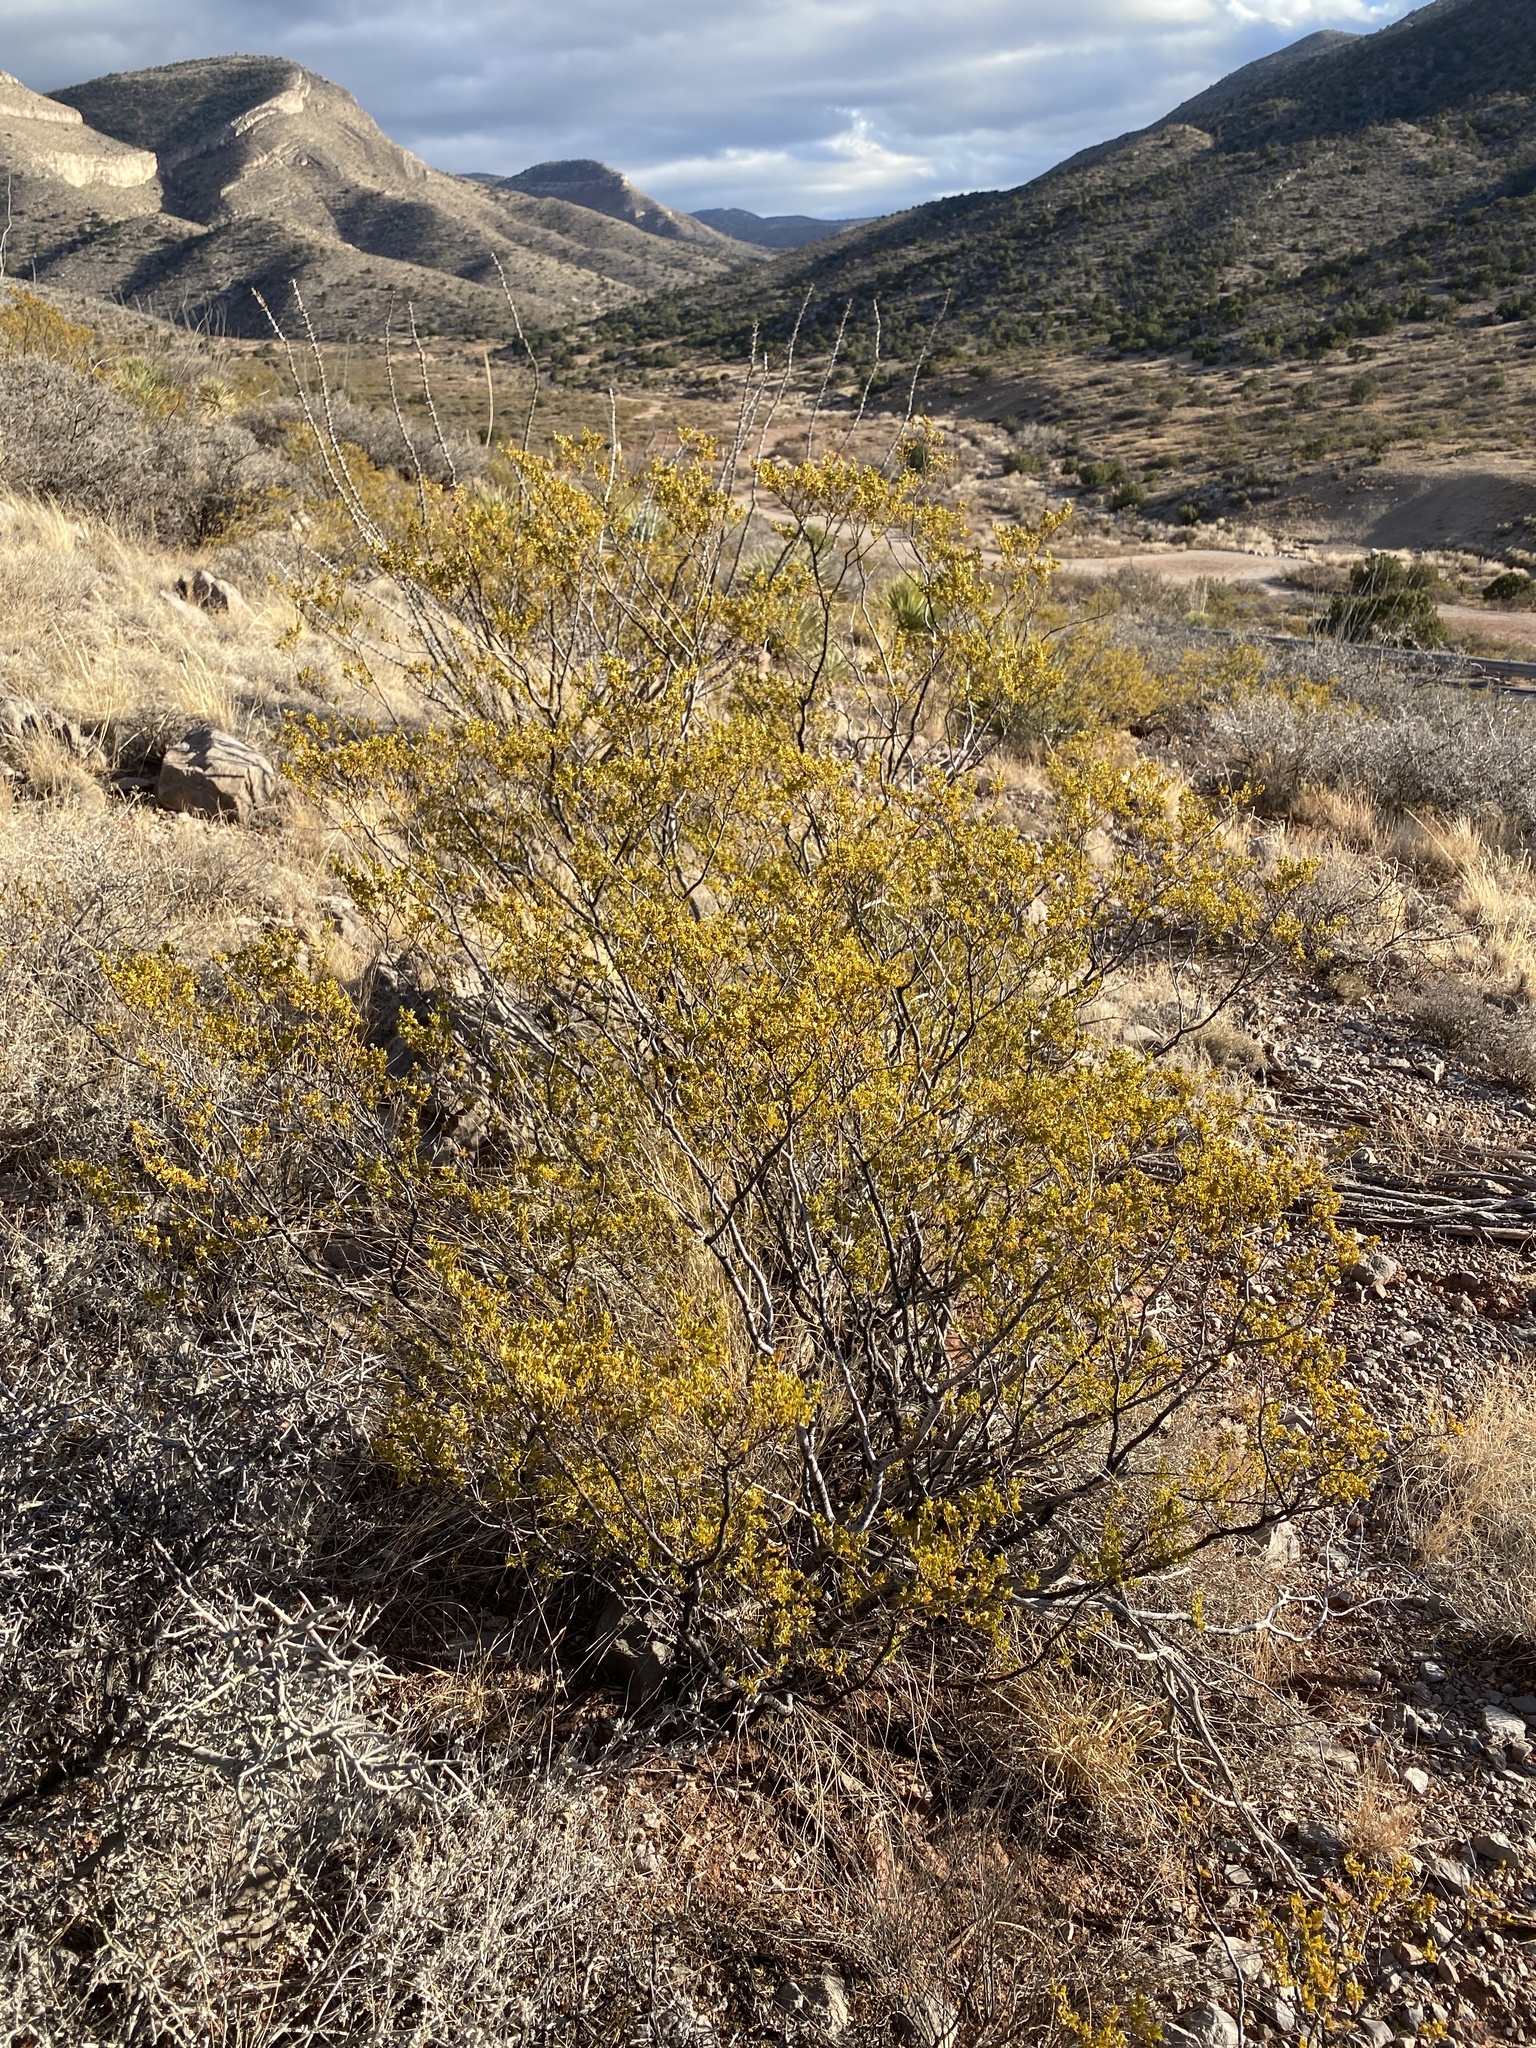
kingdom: Plantae
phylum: Tracheophyta
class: Magnoliopsida
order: Zygophyllales
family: Zygophyllaceae
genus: Larrea
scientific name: Larrea tridentata
